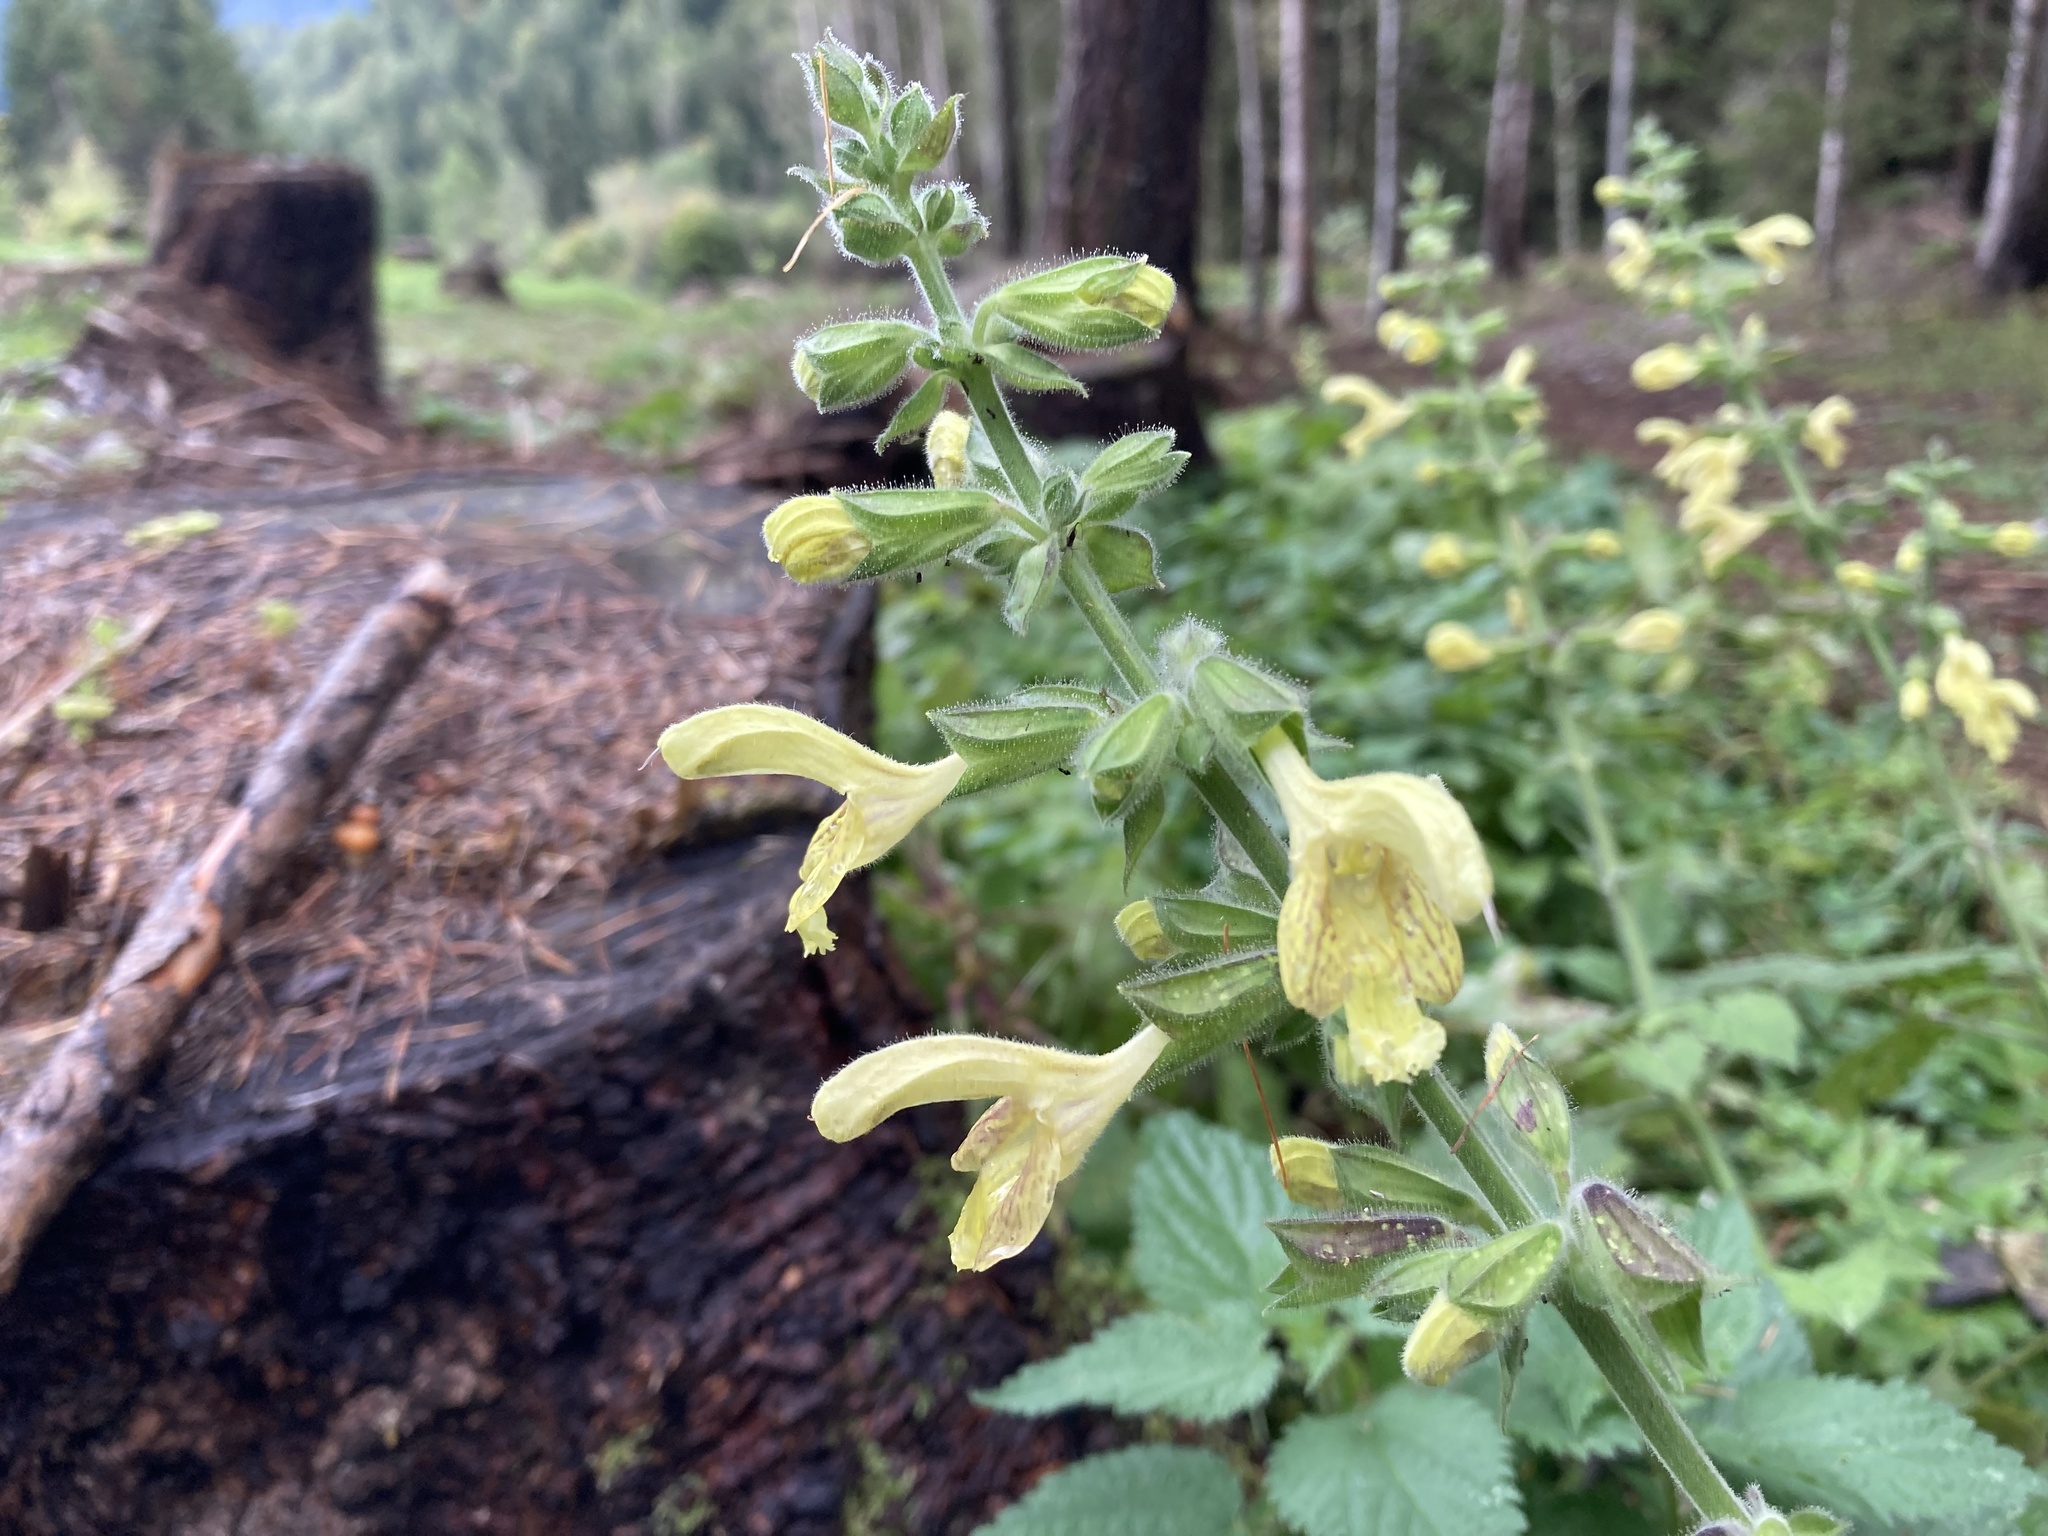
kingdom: Plantae
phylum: Tracheophyta
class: Magnoliopsida
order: Lamiales
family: Lamiaceae
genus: Salvia
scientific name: Salvia glutinosa
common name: Sticky clary
